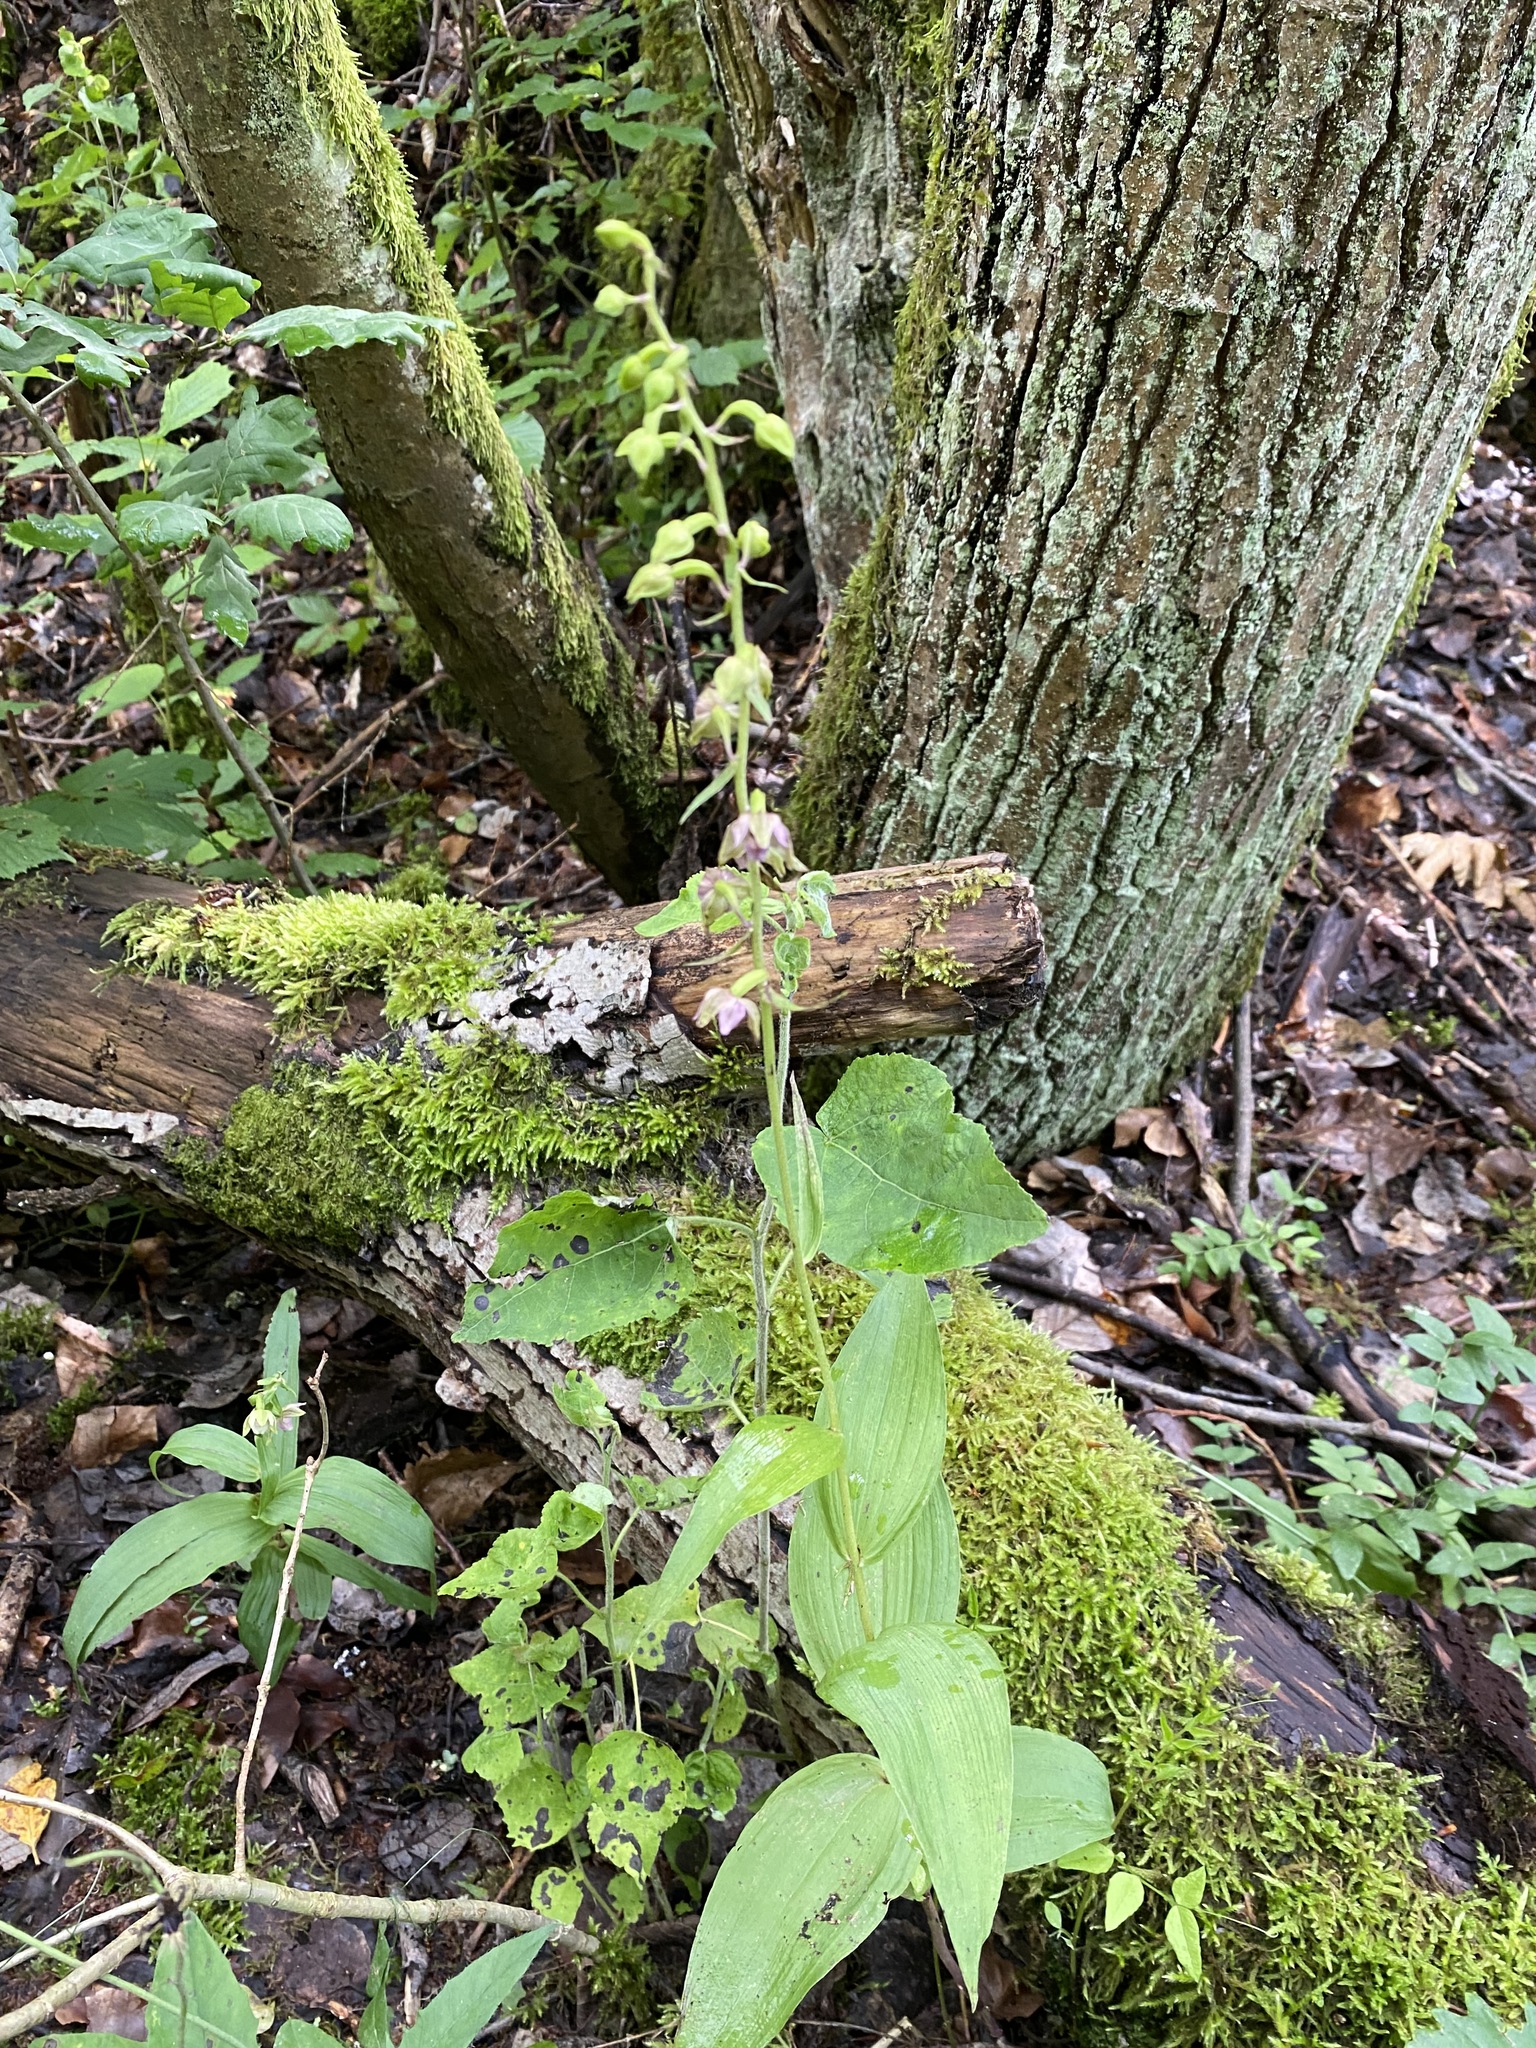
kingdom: Plantae
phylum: Tracheophyta
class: Liliopsida
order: Asparagales
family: Orchidaceae
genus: Epipactis
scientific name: Epipactis helleborine
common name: Broad-leaved helleborine
